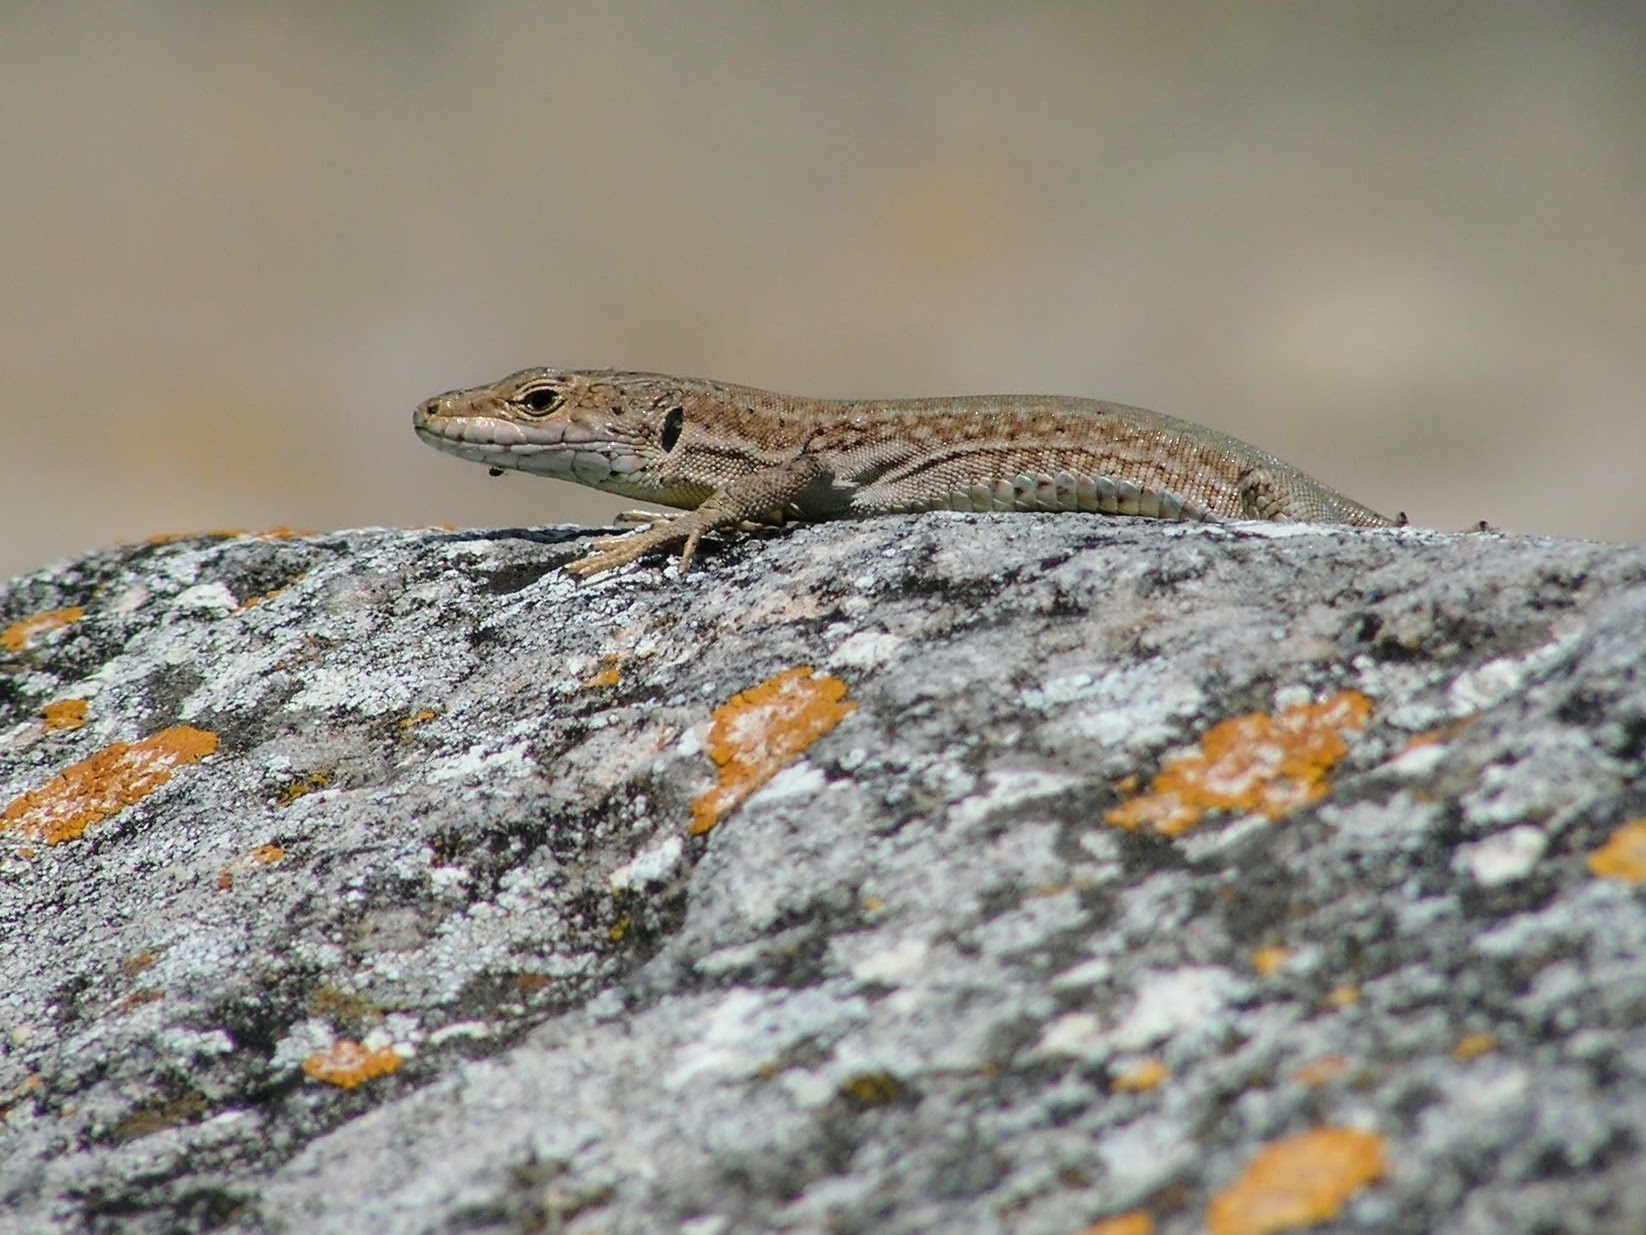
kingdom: Animalia
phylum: Chordata
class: Squamata
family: Lacertidae
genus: Podarcis
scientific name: Podarcis liolepis
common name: Catalonian wall lizard
